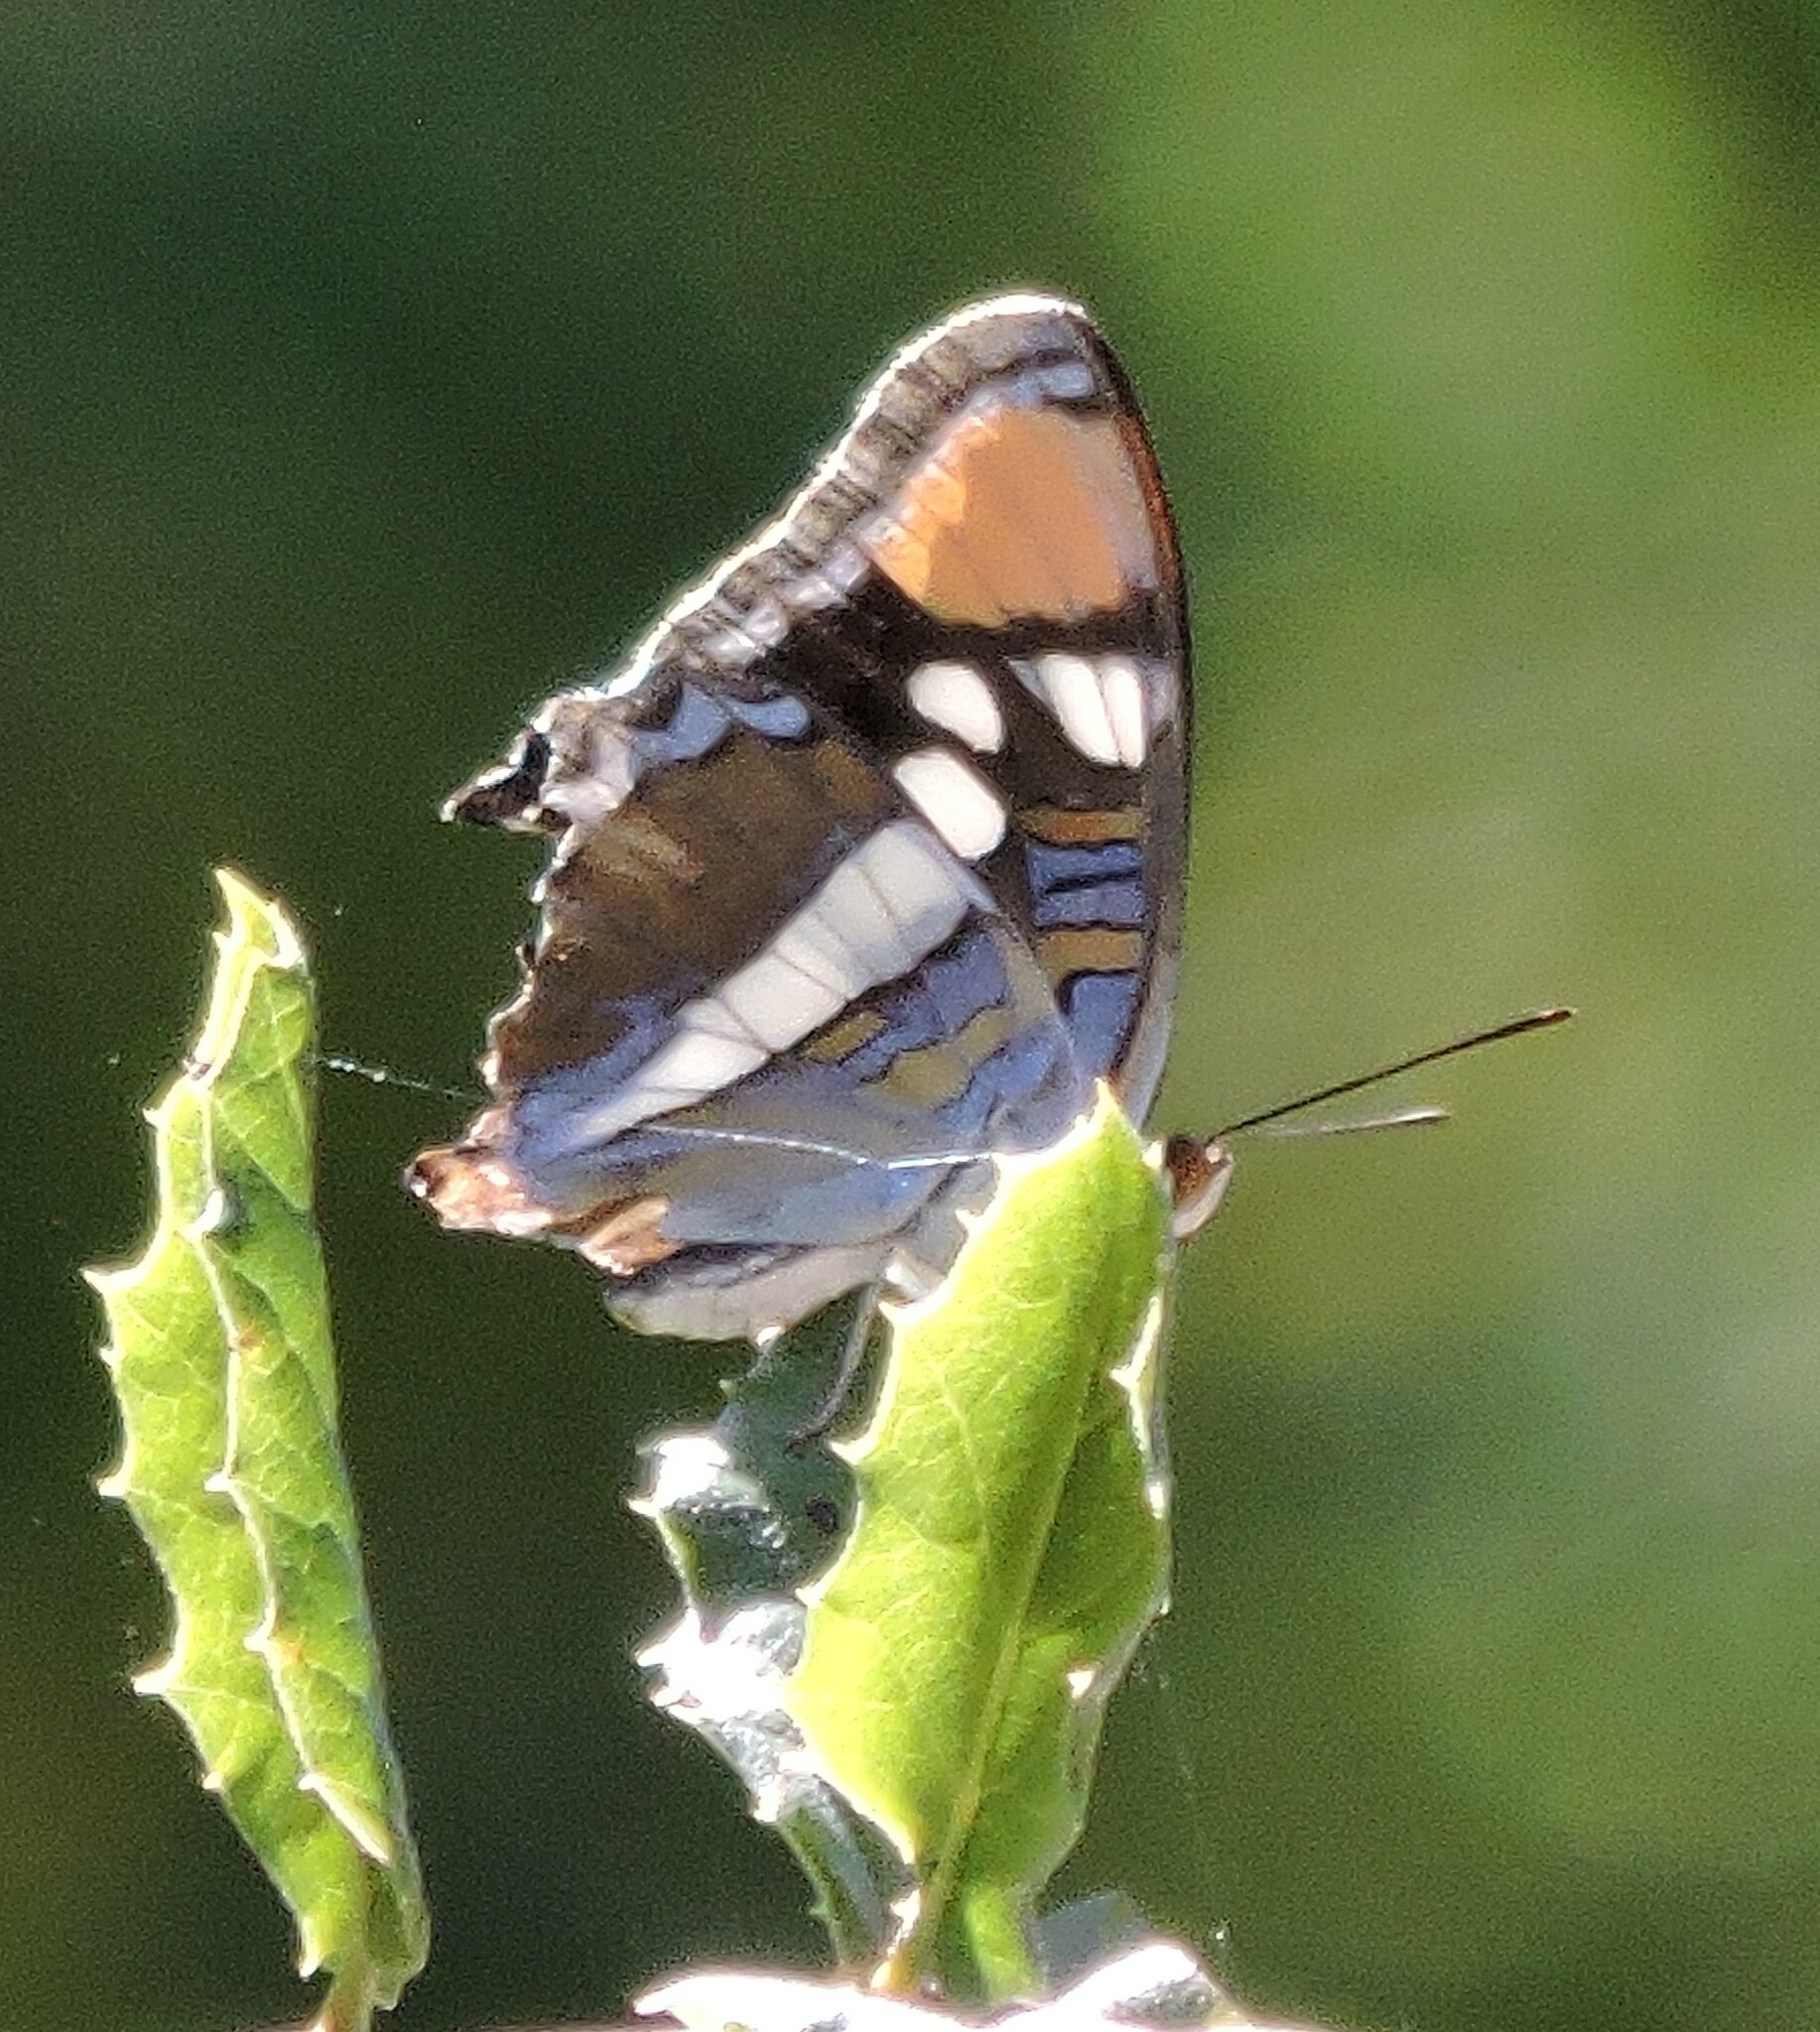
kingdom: Animalia
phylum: Arthropoda
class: Insecta
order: Lepidoptera
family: Nymphalidae
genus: Limenitis
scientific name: Limenitis bredowii
